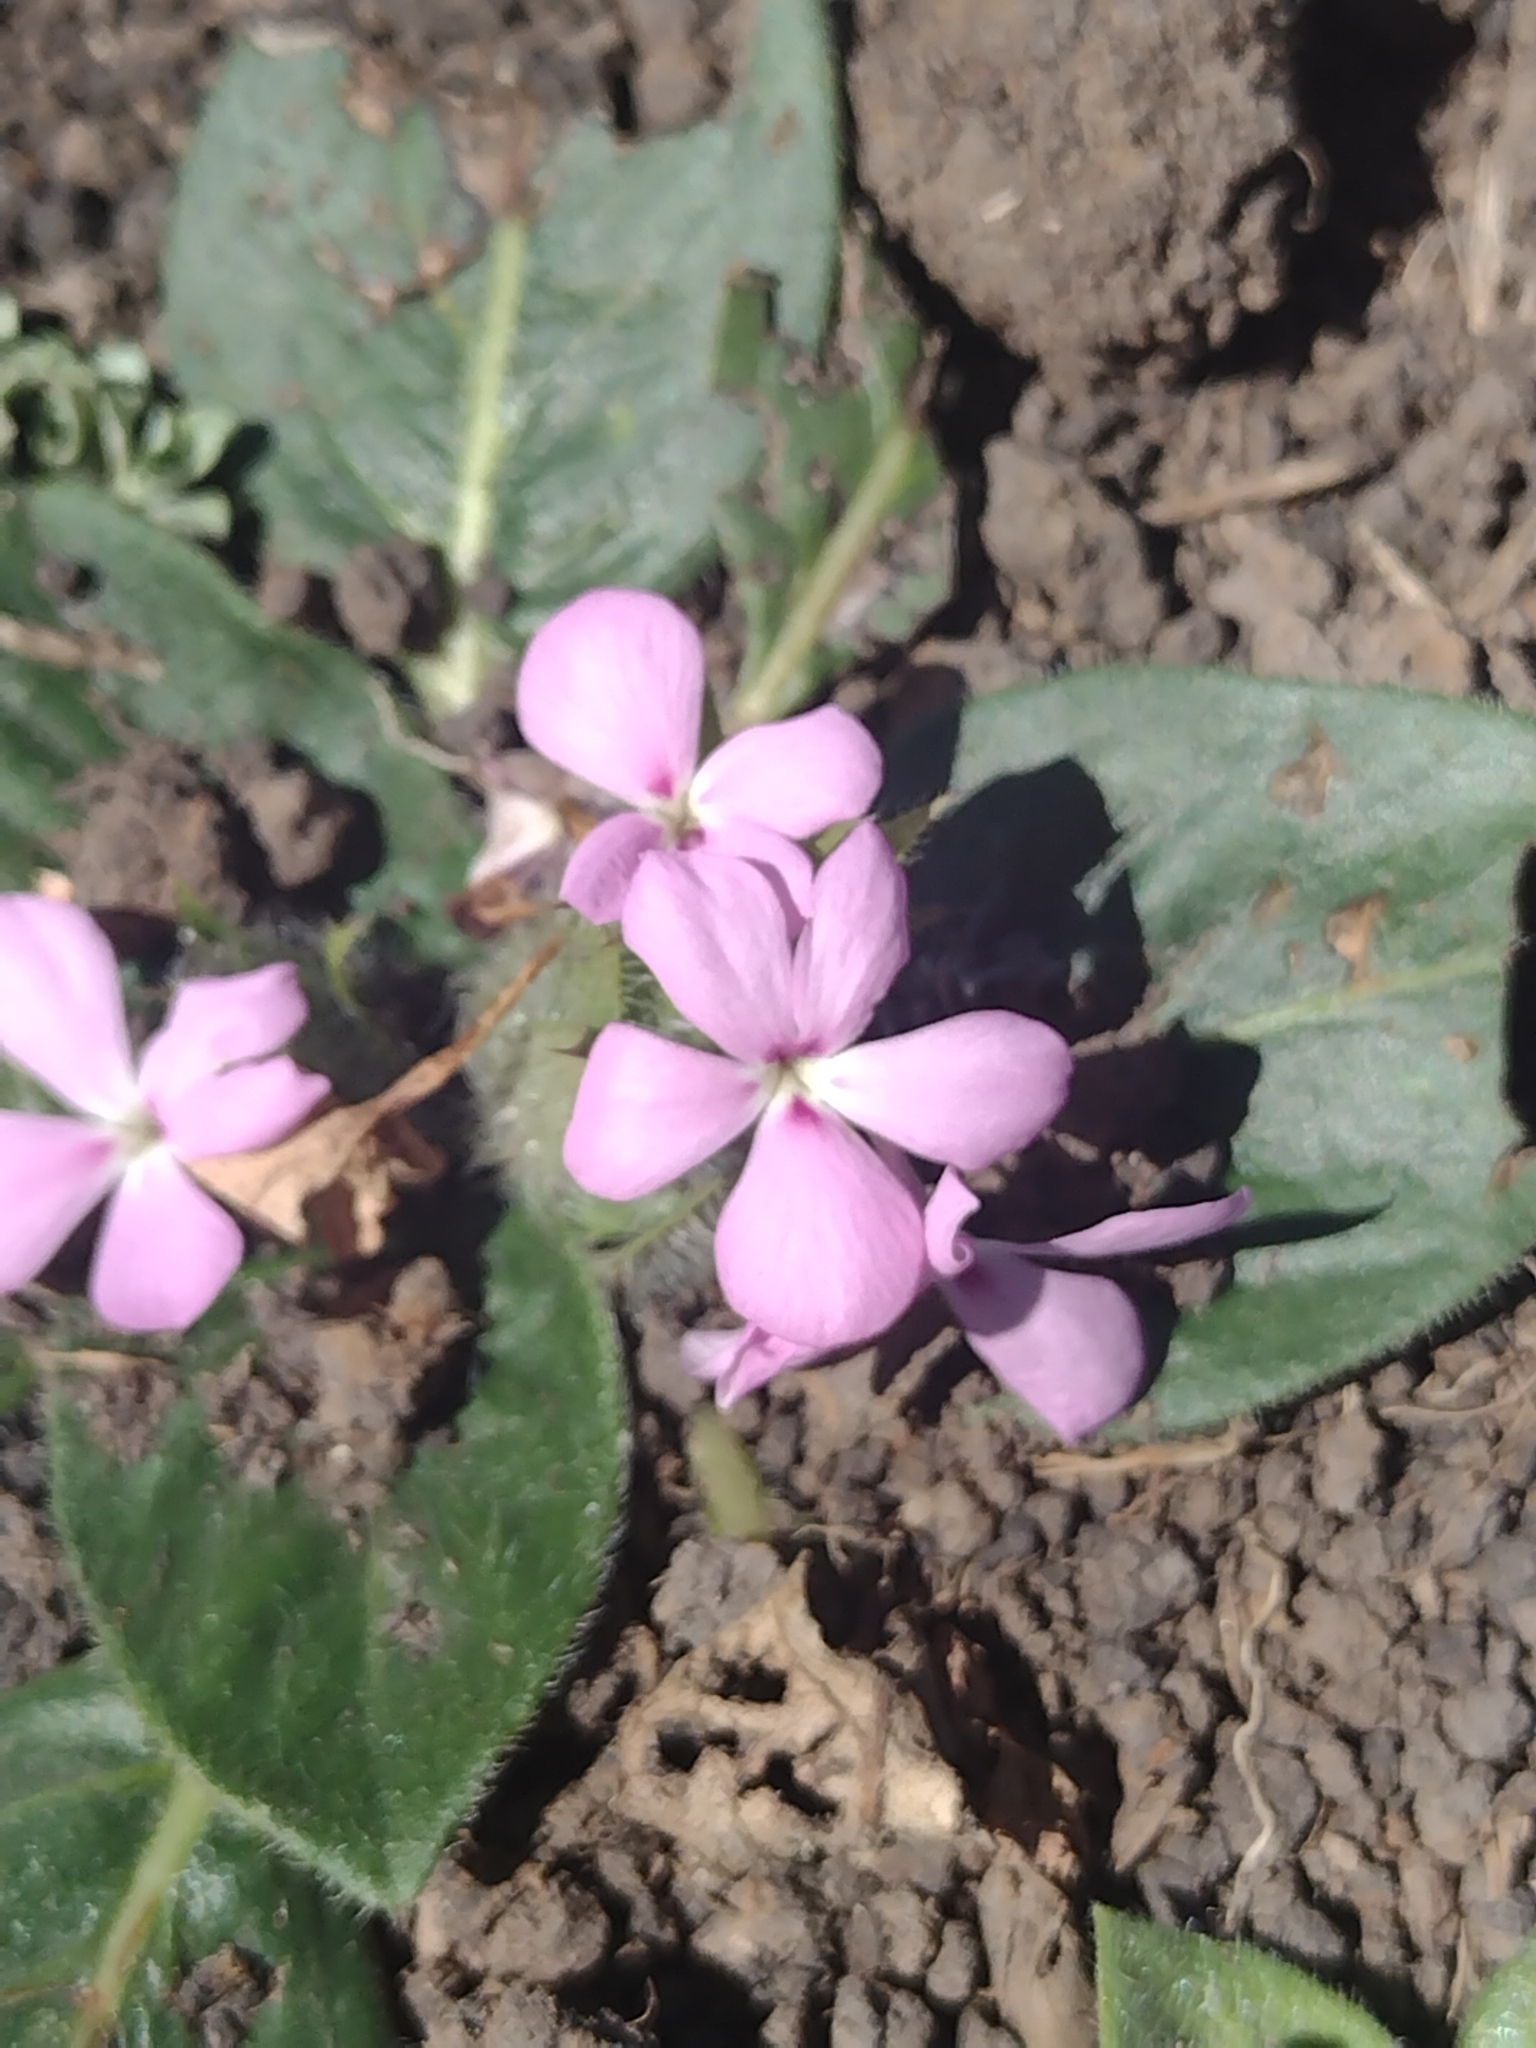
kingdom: Plantae
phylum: Tracheophyta
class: Magnoliopsida
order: Lamiales
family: Acanthaceae
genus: Stenandrium
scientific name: Stenandrium dulce
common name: Pinklet
